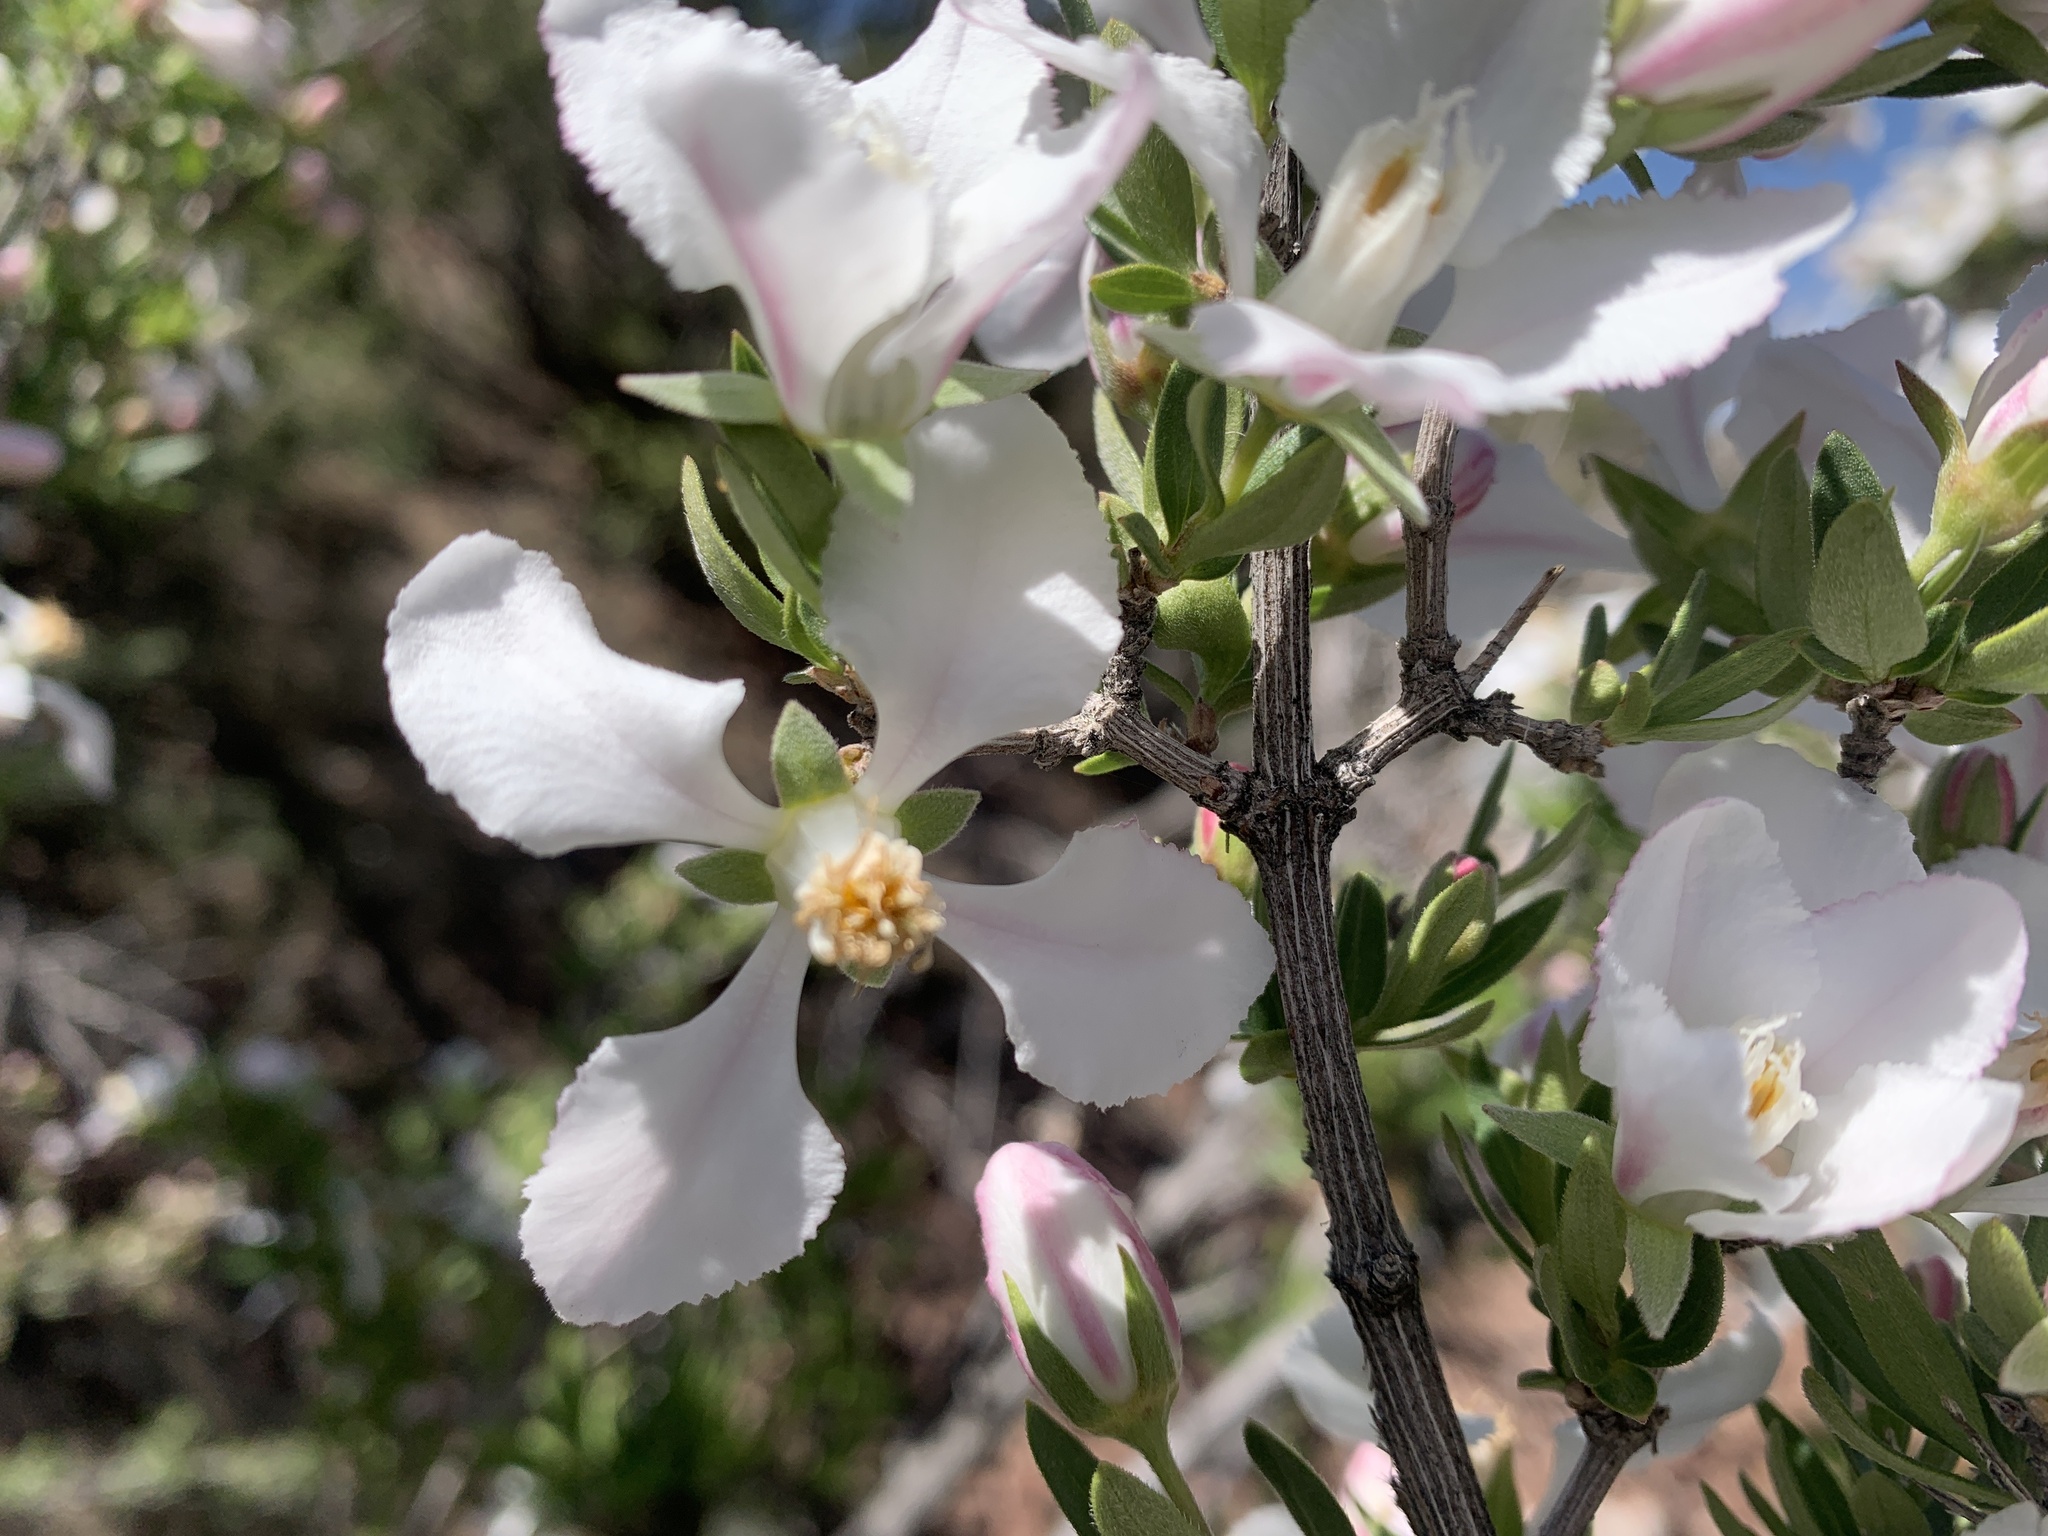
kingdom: Plantae
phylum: Tracheophyta
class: Magnoliopsida
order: Cornales
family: Hydrangeaceae
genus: Fendlera
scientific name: Fendlera rupicola
